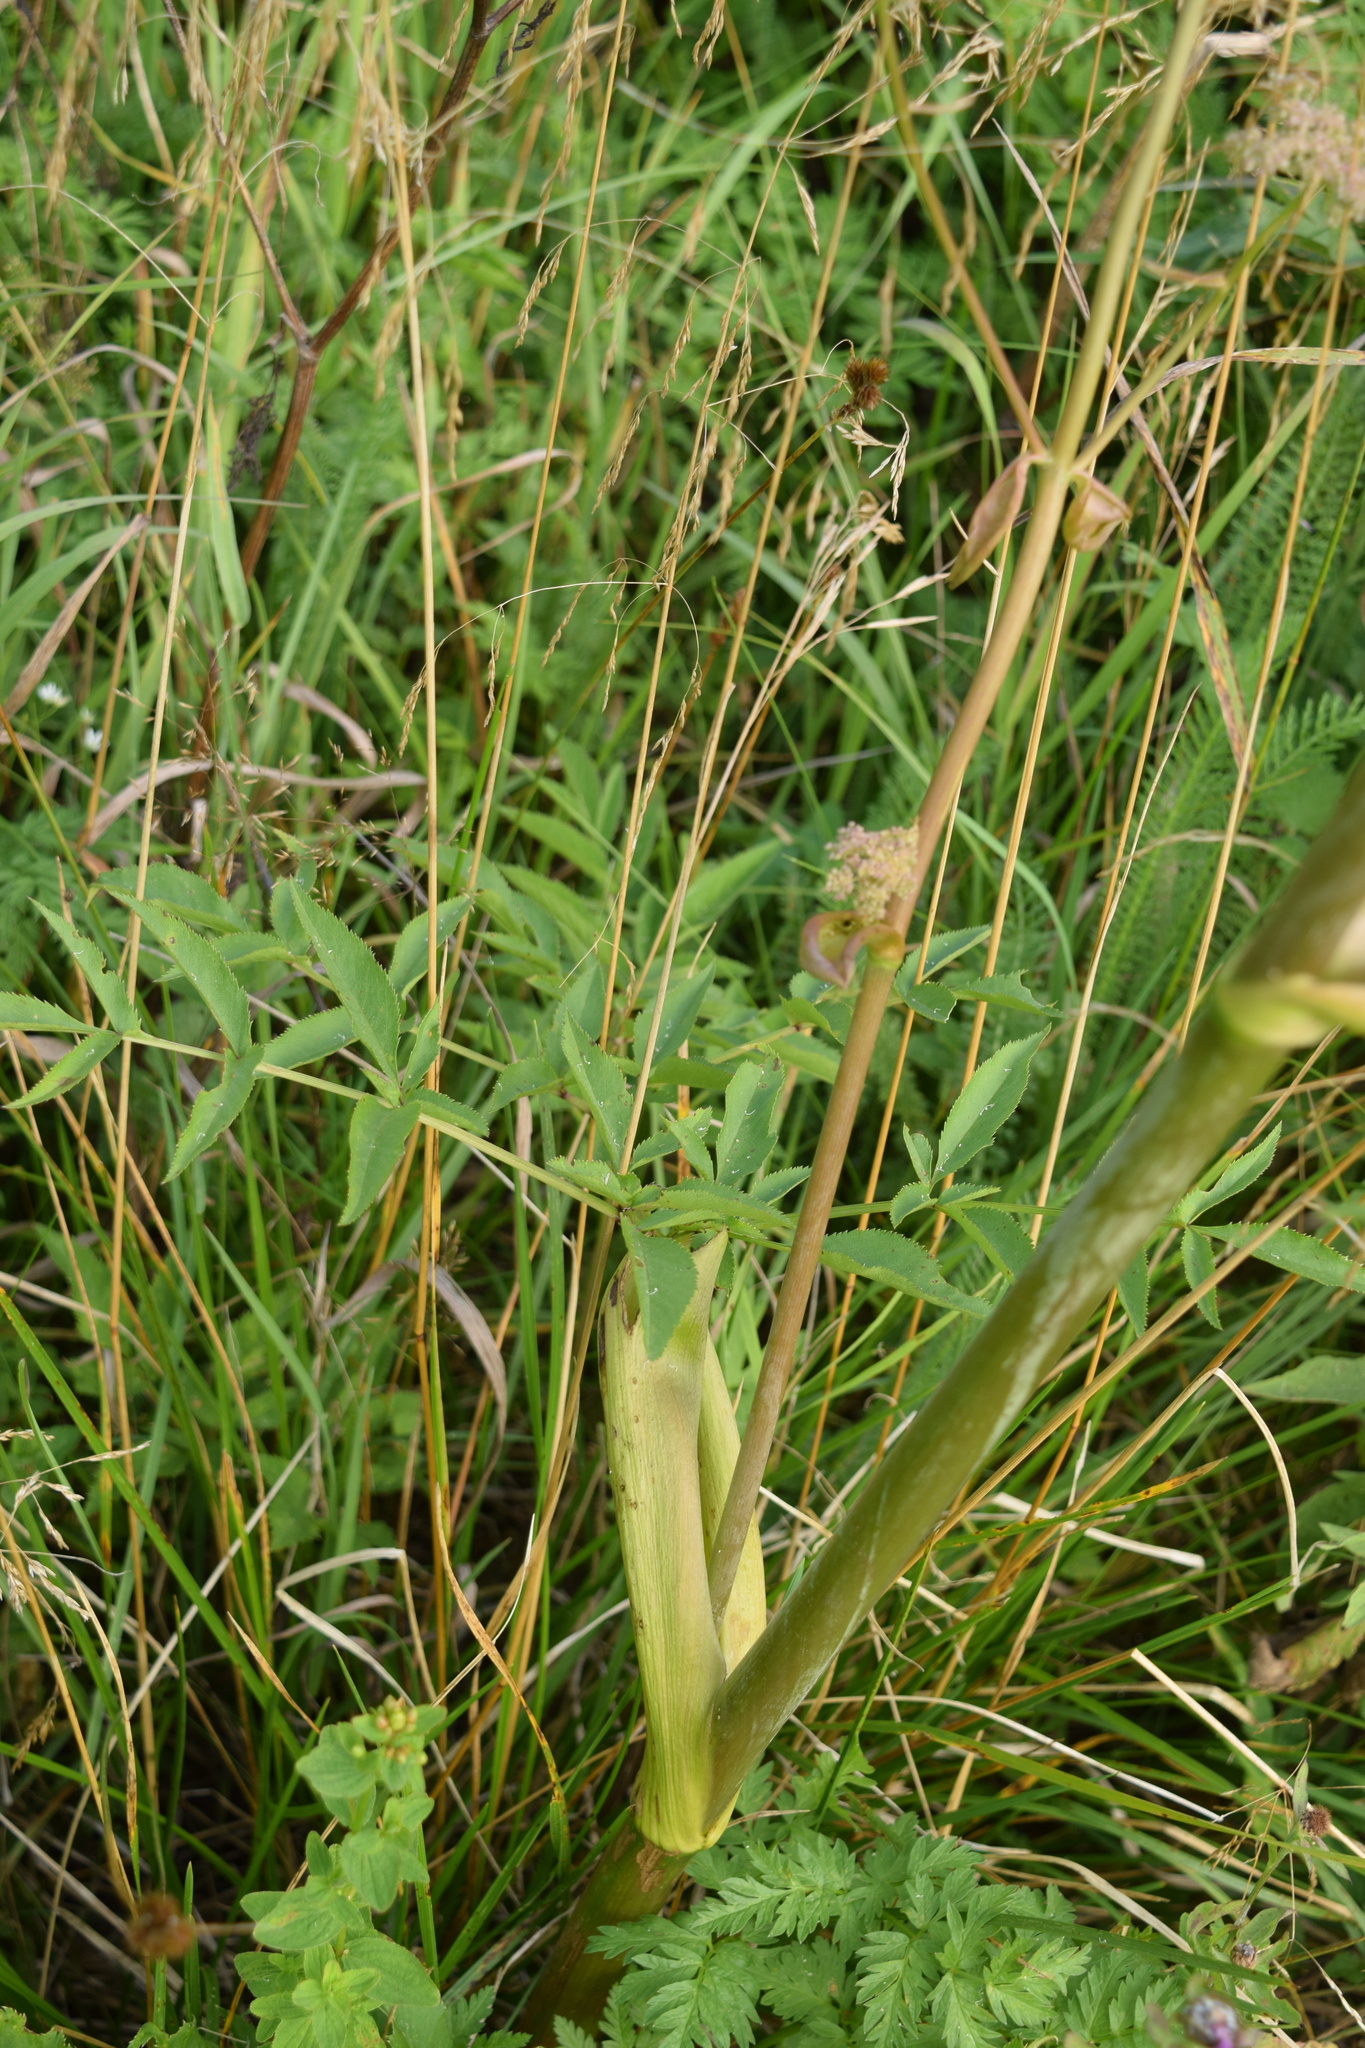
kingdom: Plantae
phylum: Tracheophyta
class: Magnoliopsida
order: Apiales
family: Apiaceae
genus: Angelica
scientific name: Angelica sylvestris
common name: Wild angelica
